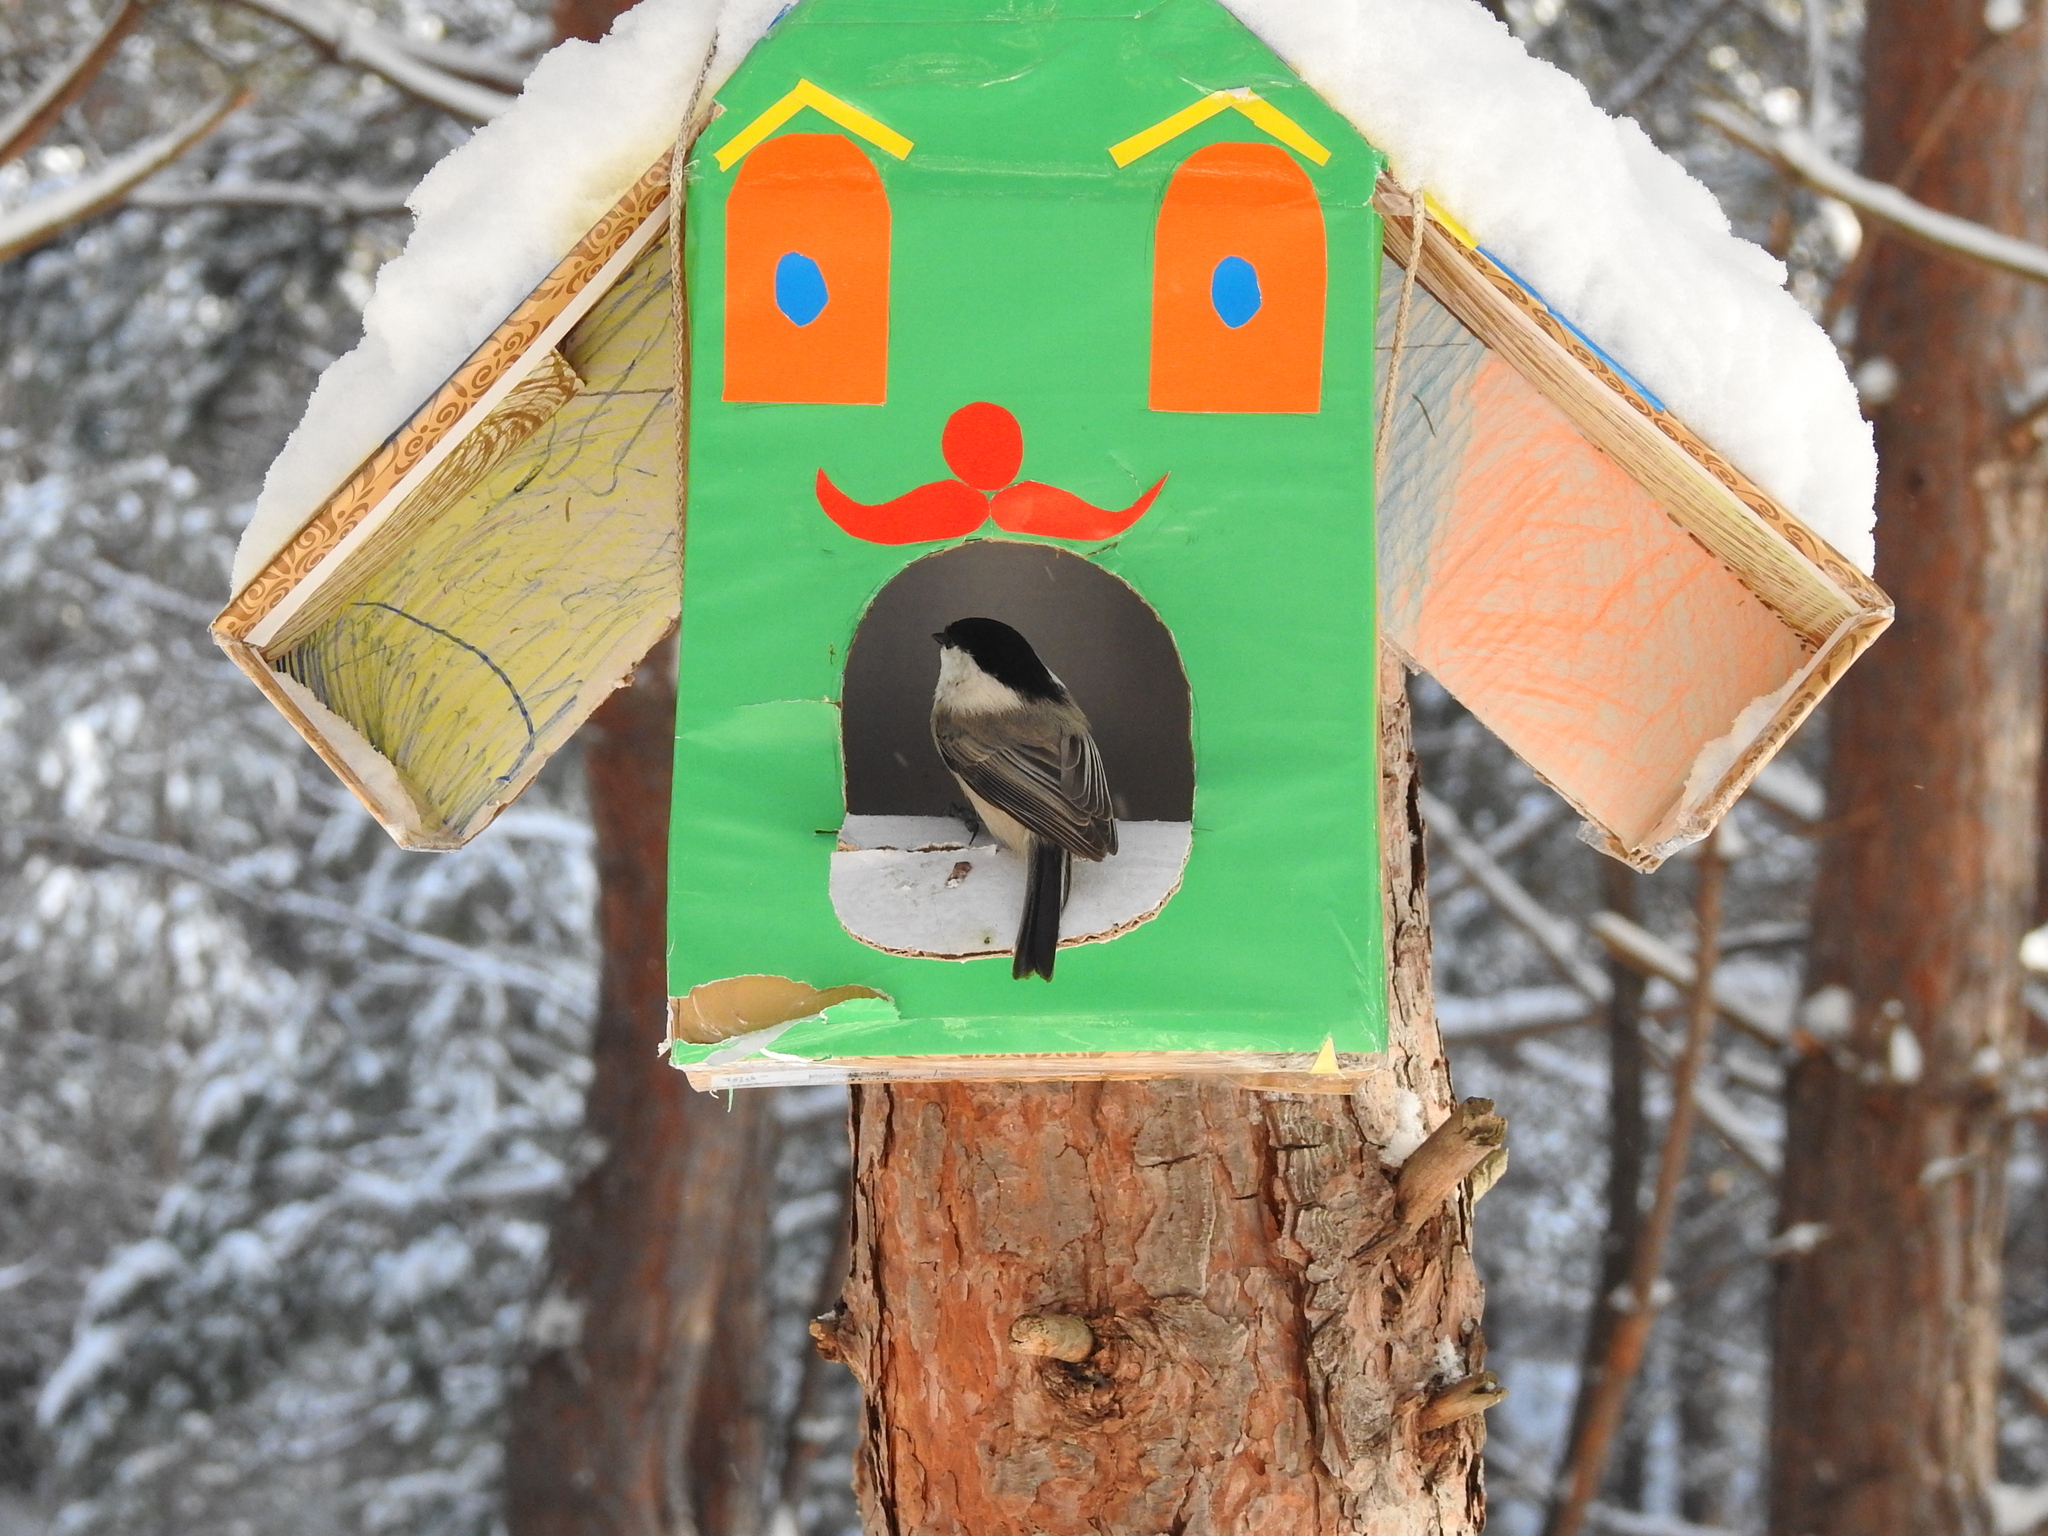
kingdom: Animalia
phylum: Chordata
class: Aves
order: Passeriformes
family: Paridae
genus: Poecile
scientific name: Poecile montanus
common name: Willow tit
